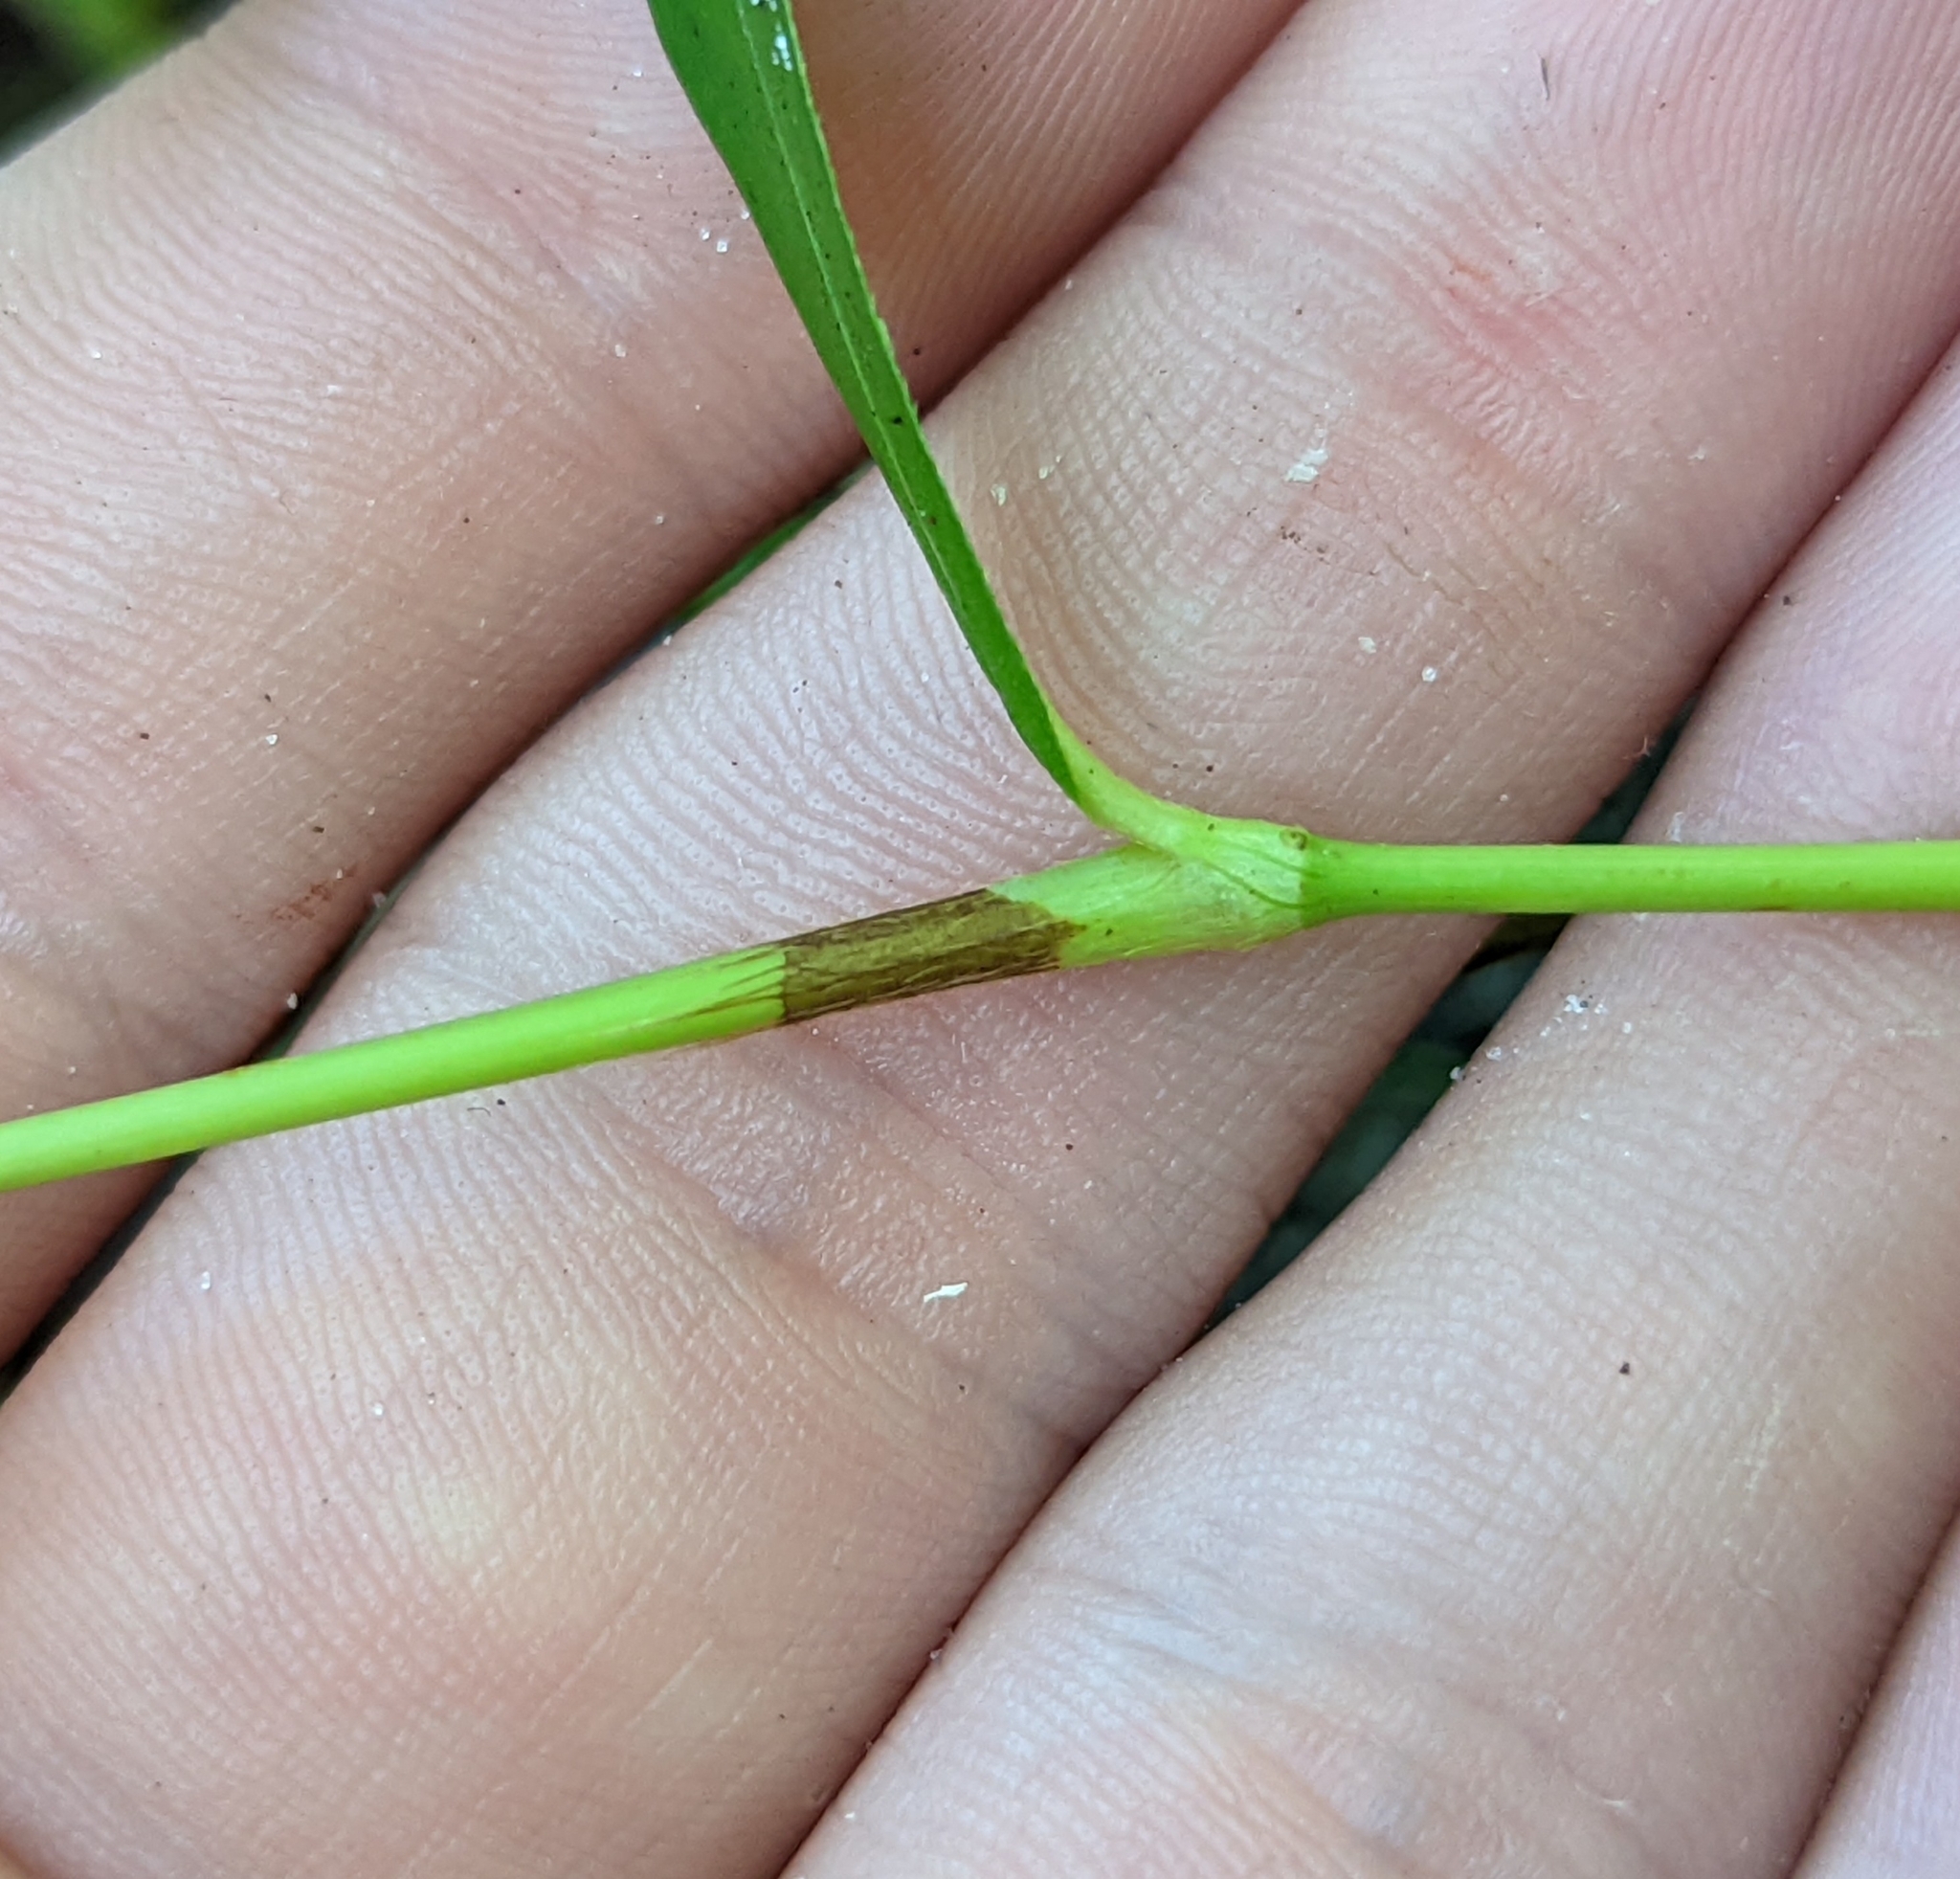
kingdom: Plantae
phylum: Tracheophyta
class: Magnoliopsida
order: Caryophyllales
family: Polygonaceae
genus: Persicaria
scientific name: Persicaria hydropiperoides
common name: Swamp smartweed
